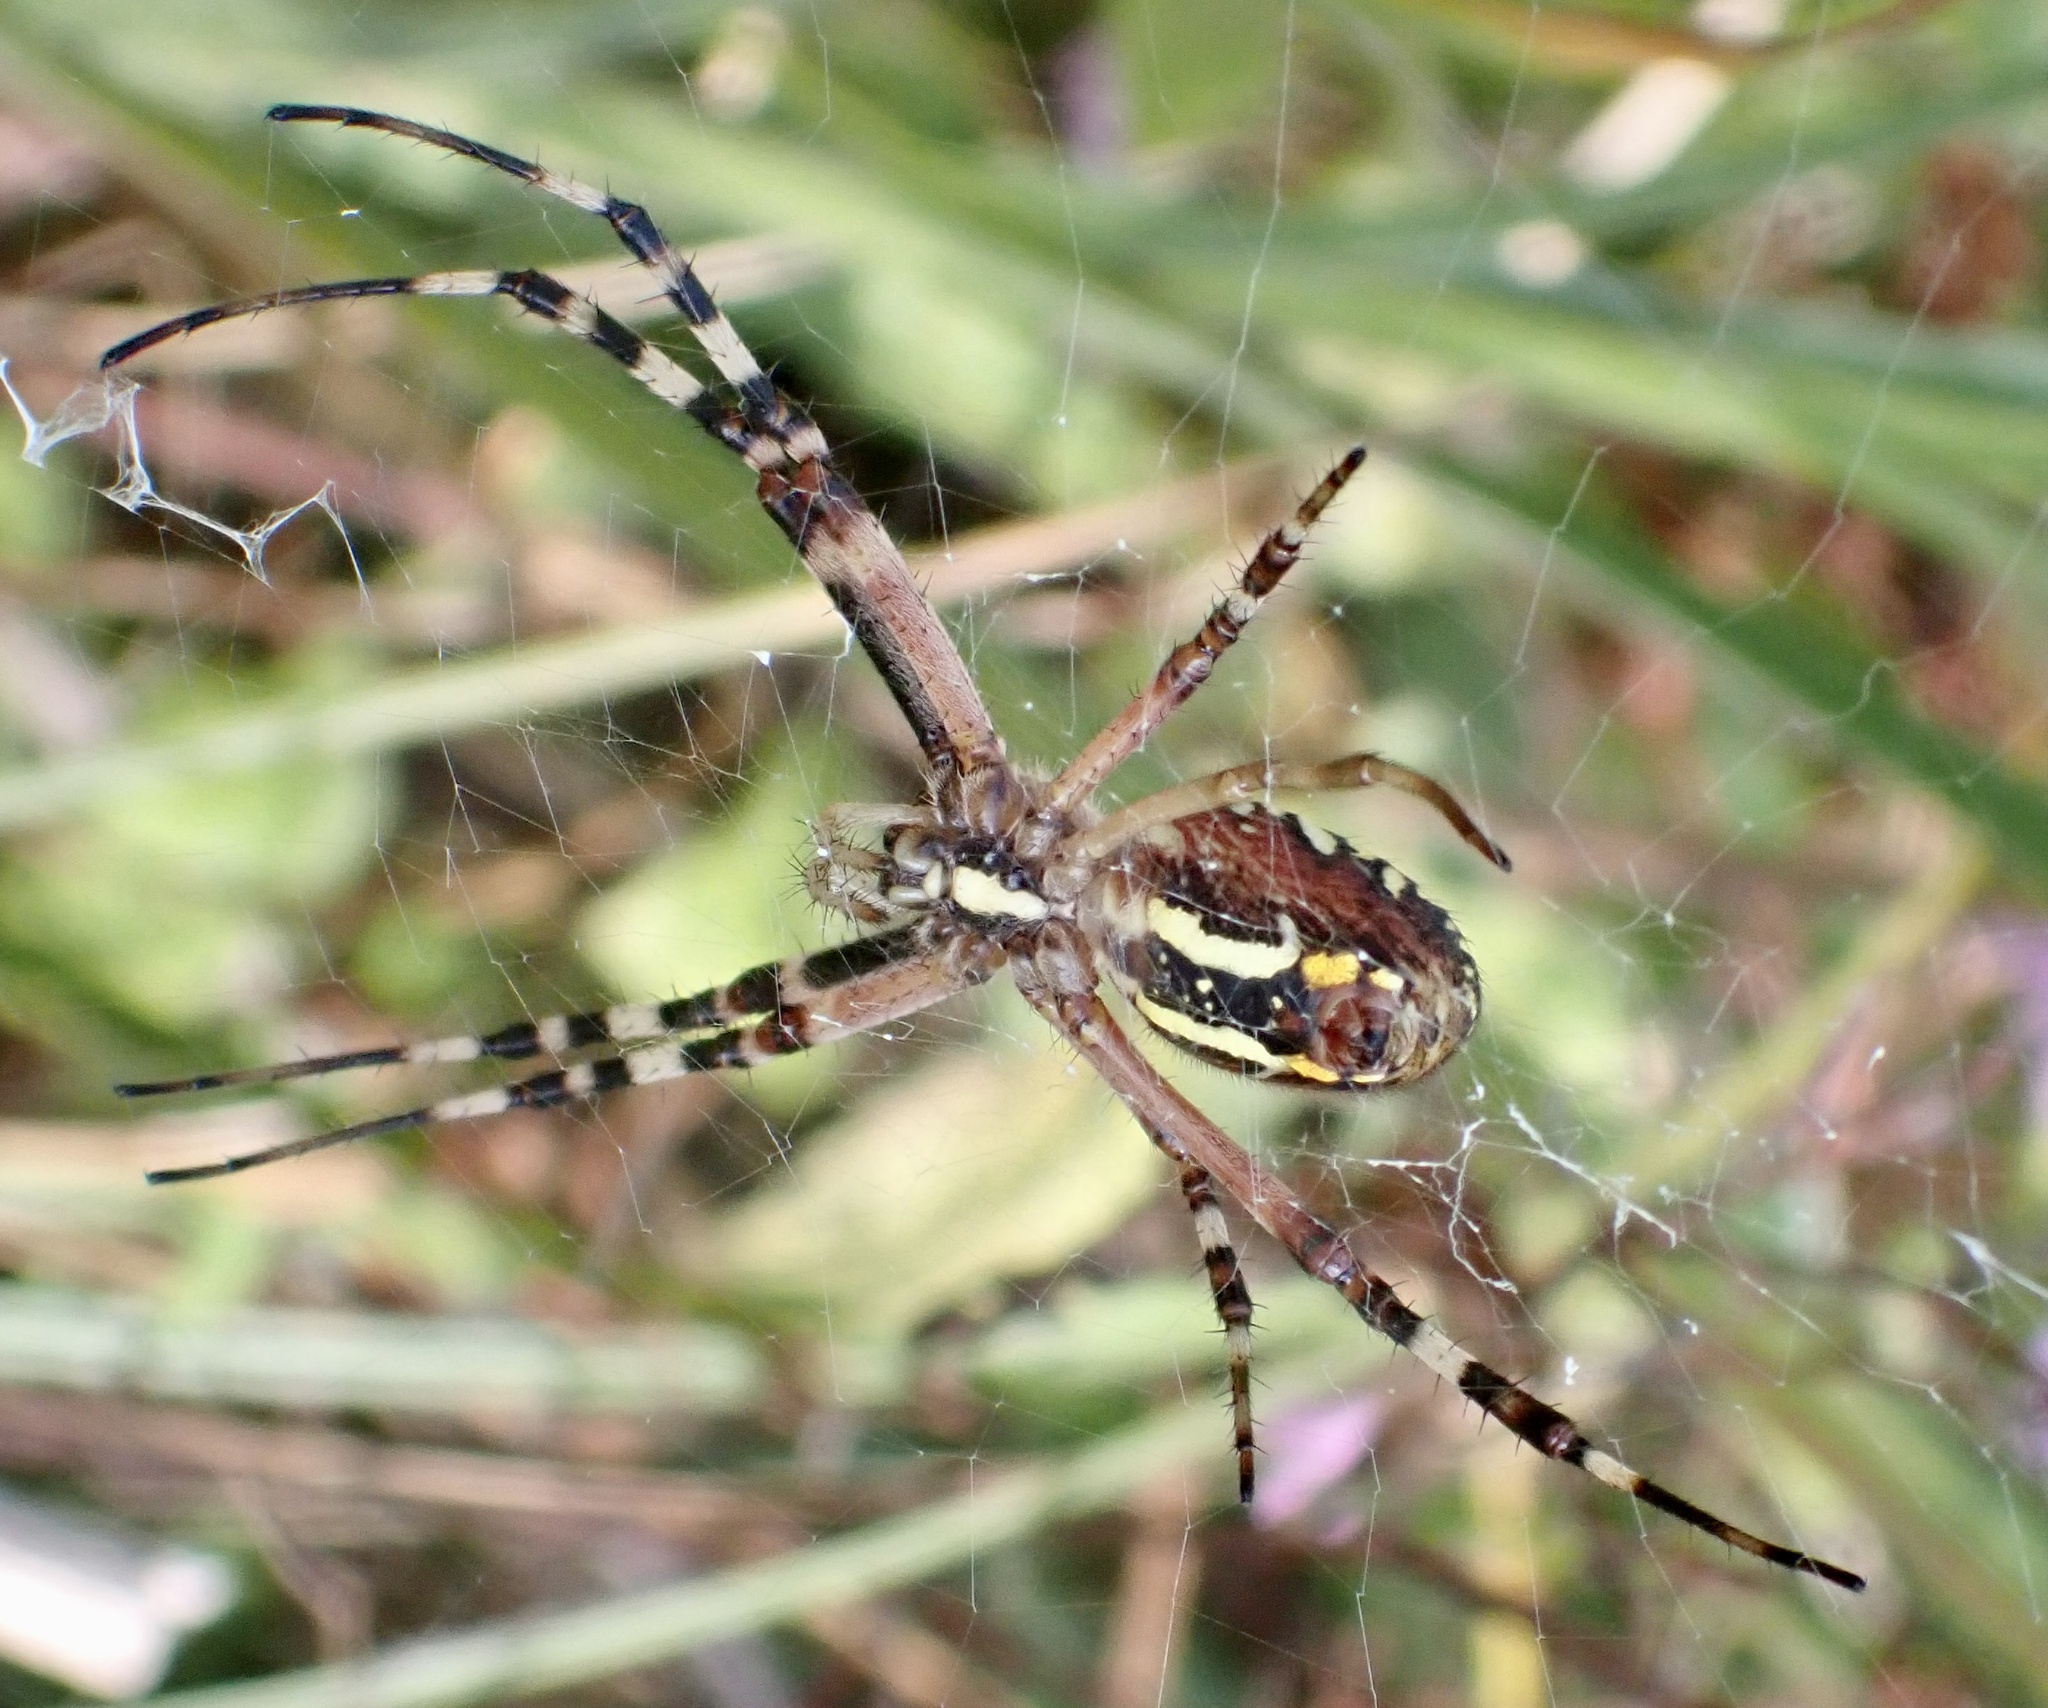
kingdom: Animalia
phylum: Arthropoda
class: Arachnida
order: Araneae
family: Araneidae
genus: Argiope
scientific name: Argiope bruennichi
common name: Wasp spider
